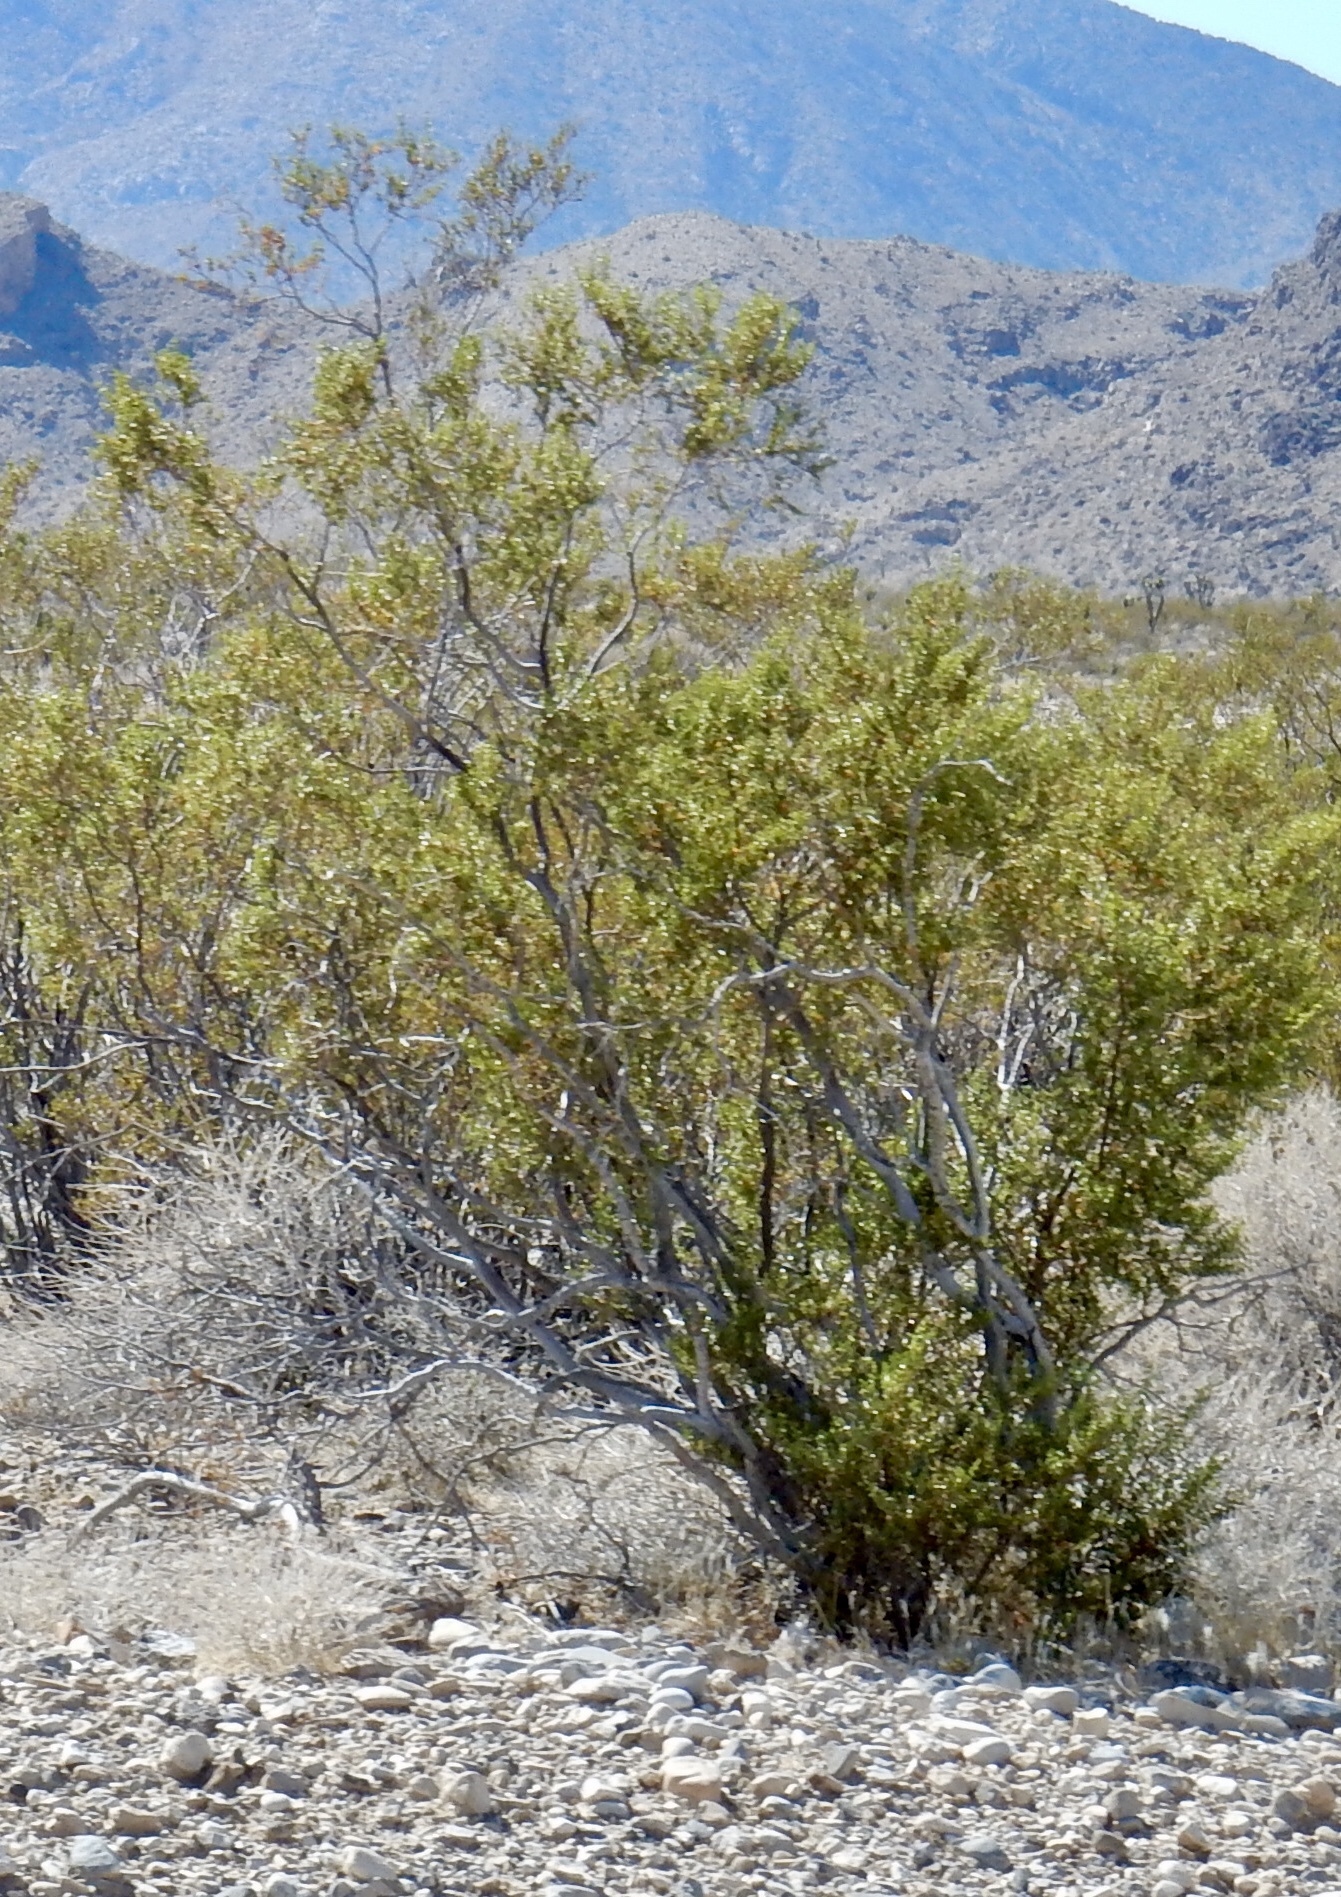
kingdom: Plantae
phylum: Tracheophyta
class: Magnoliopsida
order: Zygophyllales
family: Zygophyllaceae
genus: Larrea
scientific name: Larrea tridentata
